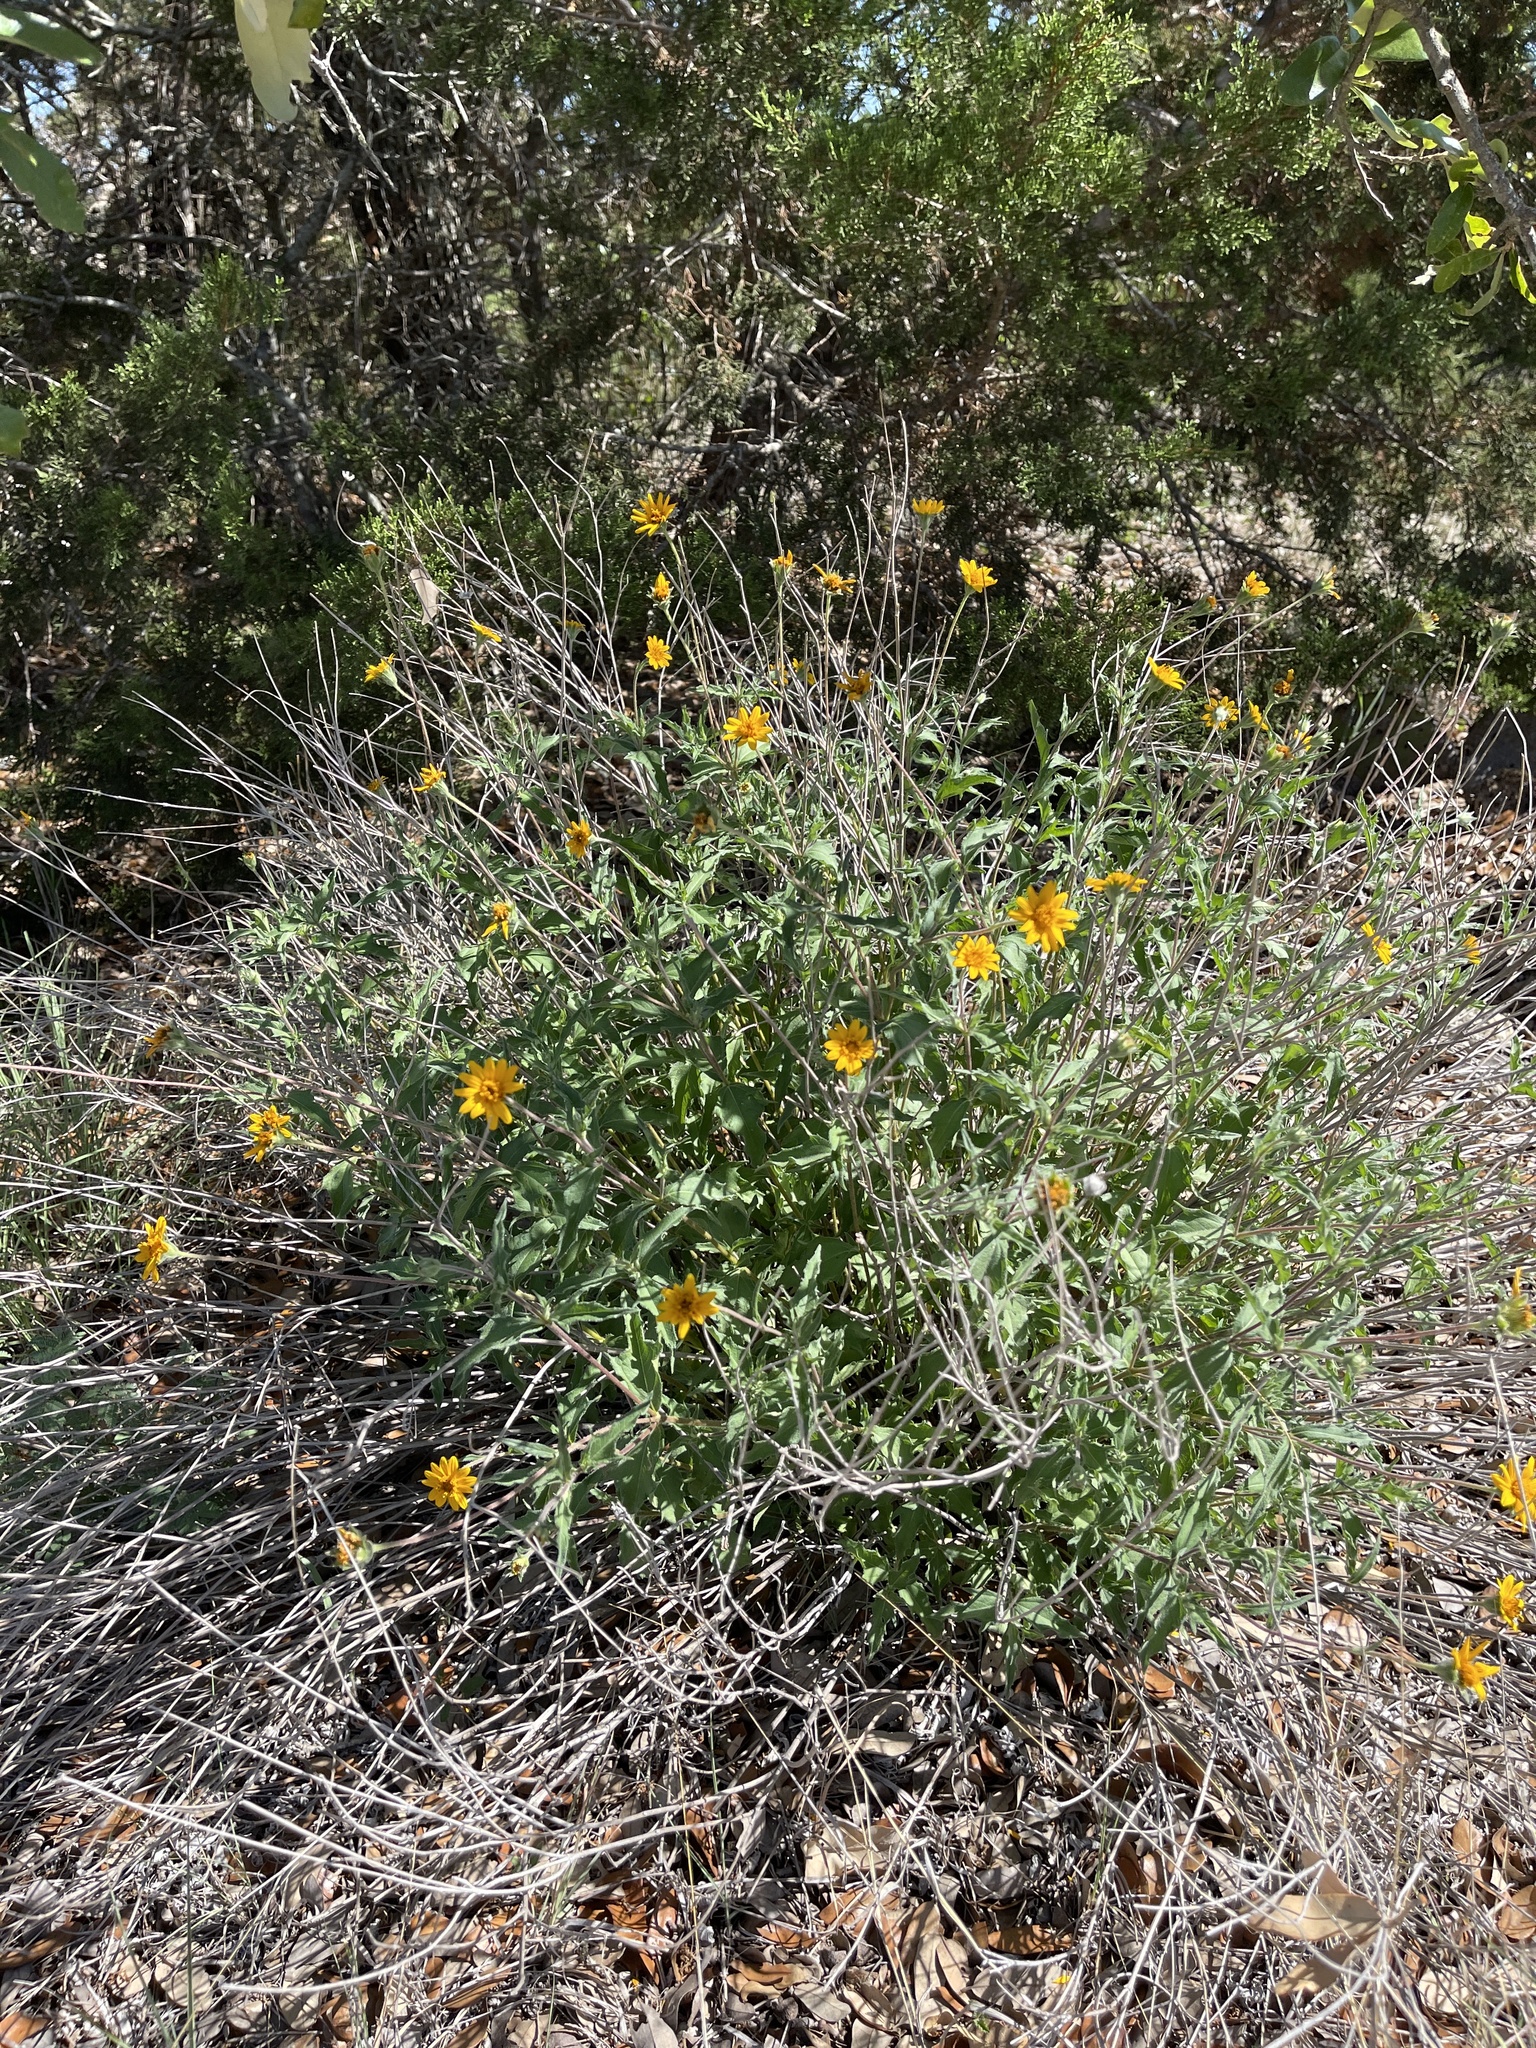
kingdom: Plantae
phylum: Tracheophyta
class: Magnoliopsida
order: Asterales
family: Asteraceae
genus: Wedelia
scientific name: Wedelia acapulcensis
